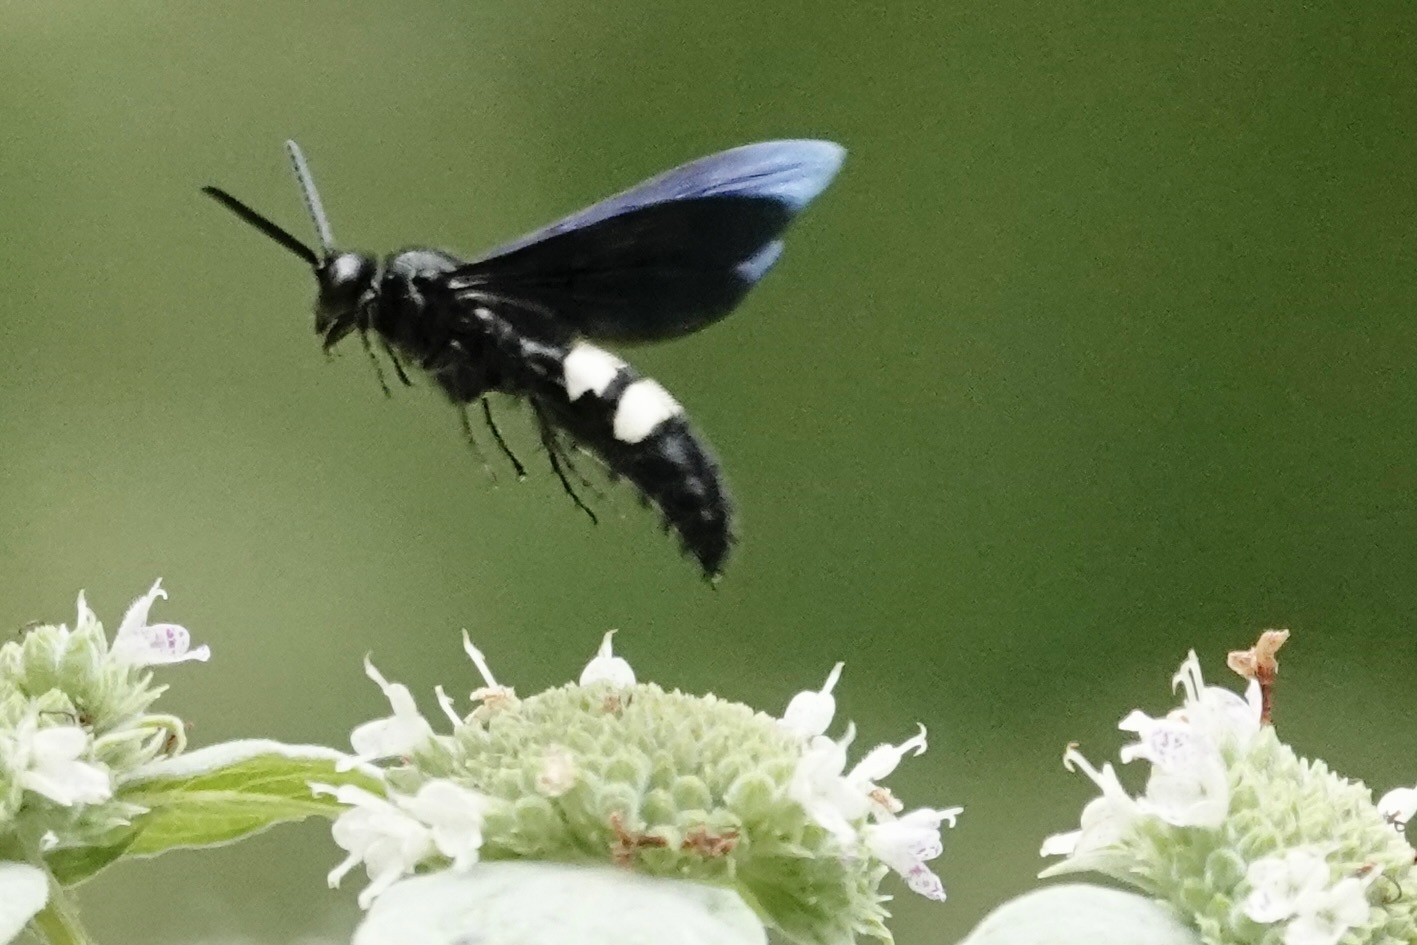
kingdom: Animalia
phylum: Arthropoda
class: Insecta
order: Hymenoptera
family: Scoliidae
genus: Scolia
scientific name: Scolia bicincta
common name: Double-banded scoliid wasp
